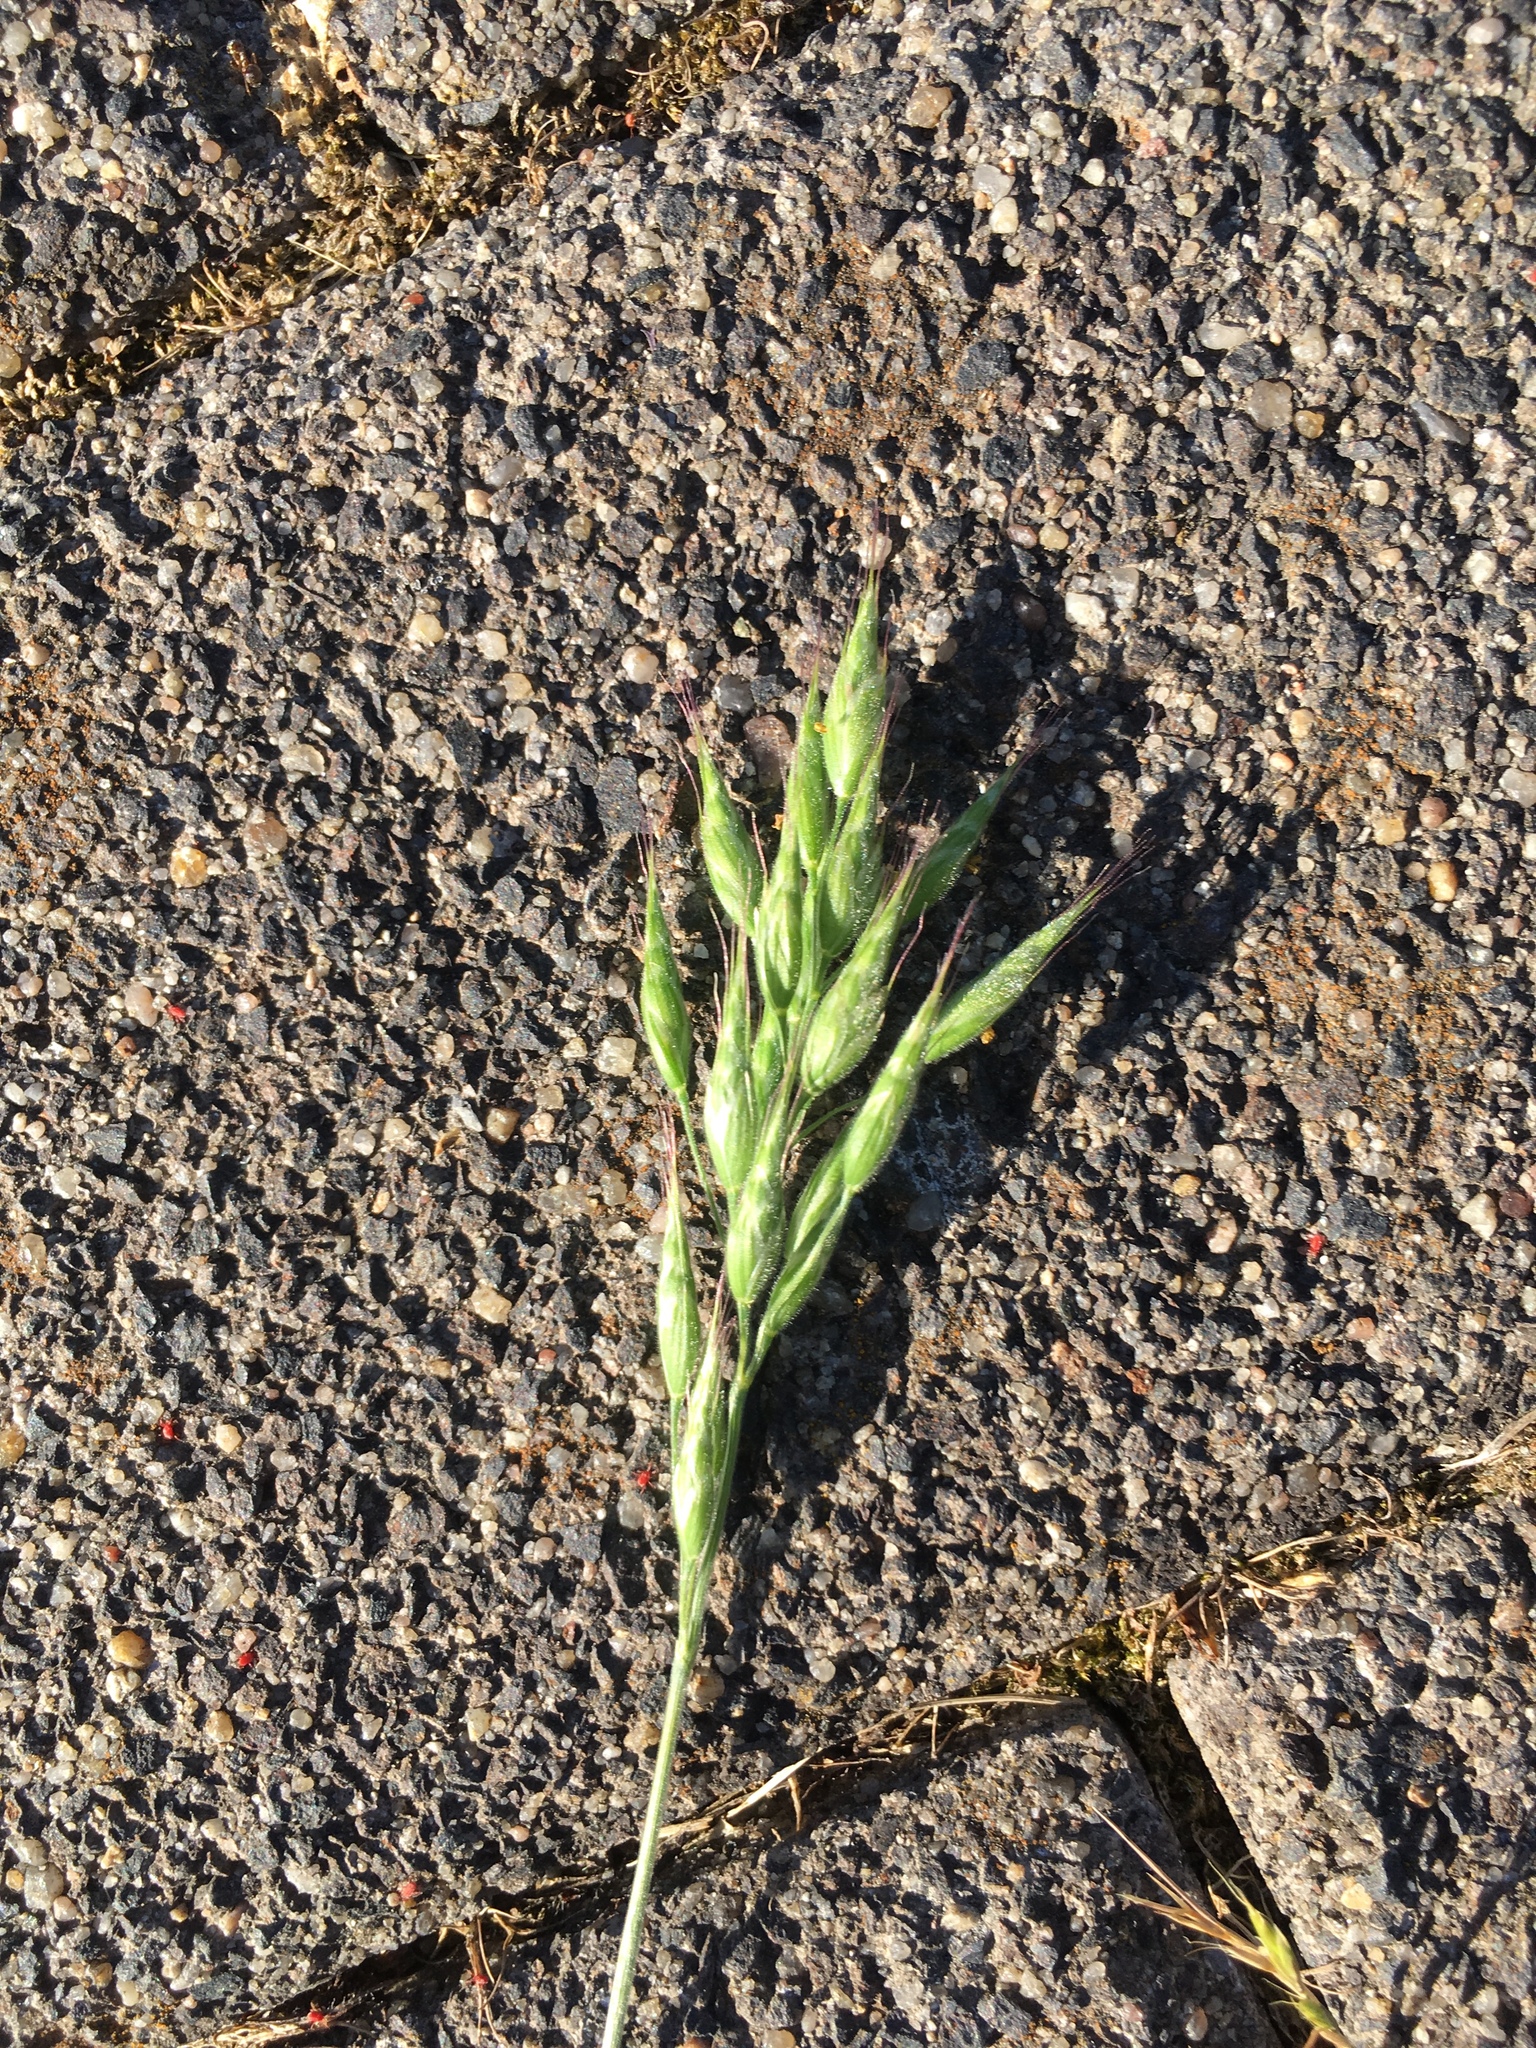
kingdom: Plantae
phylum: Tracheophyta
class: Liliopsida
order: Poales
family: Poaceae
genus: Bromus
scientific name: Bromus hordeaceus
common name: Soft brome
